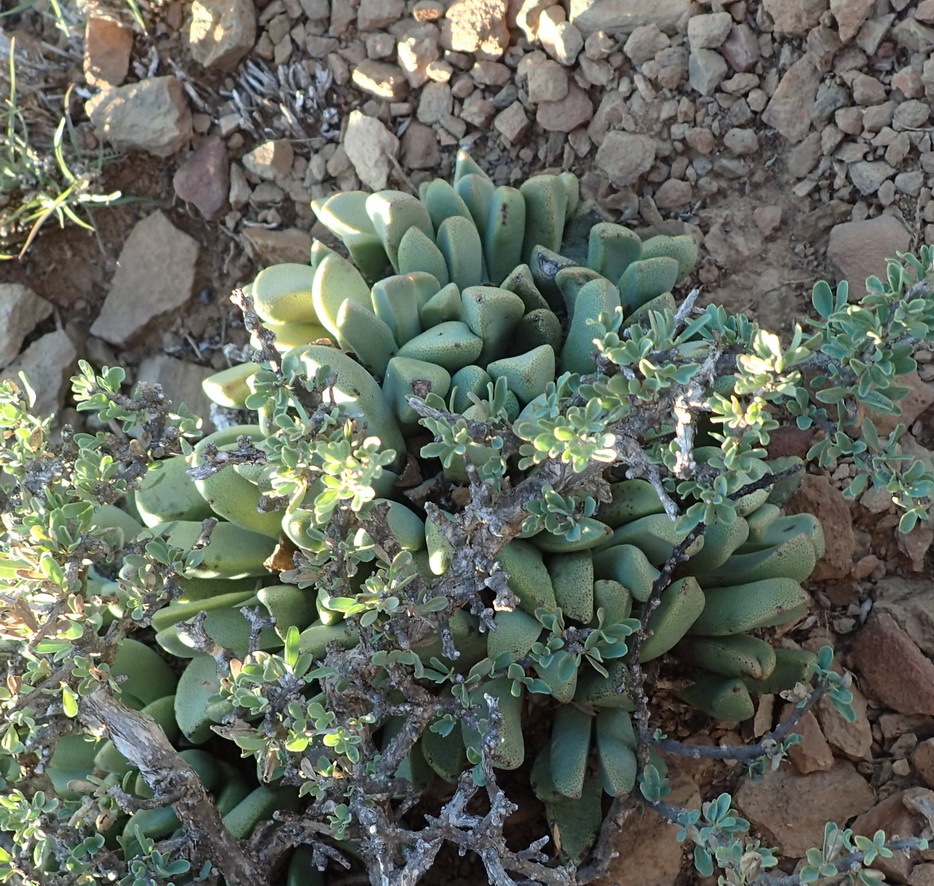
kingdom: Plantae
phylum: Tracheophyta
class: Magnoliopsida
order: Caryophyllales
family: Aizoaceae
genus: Pleiospilos
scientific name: Pleiospilos compactus
